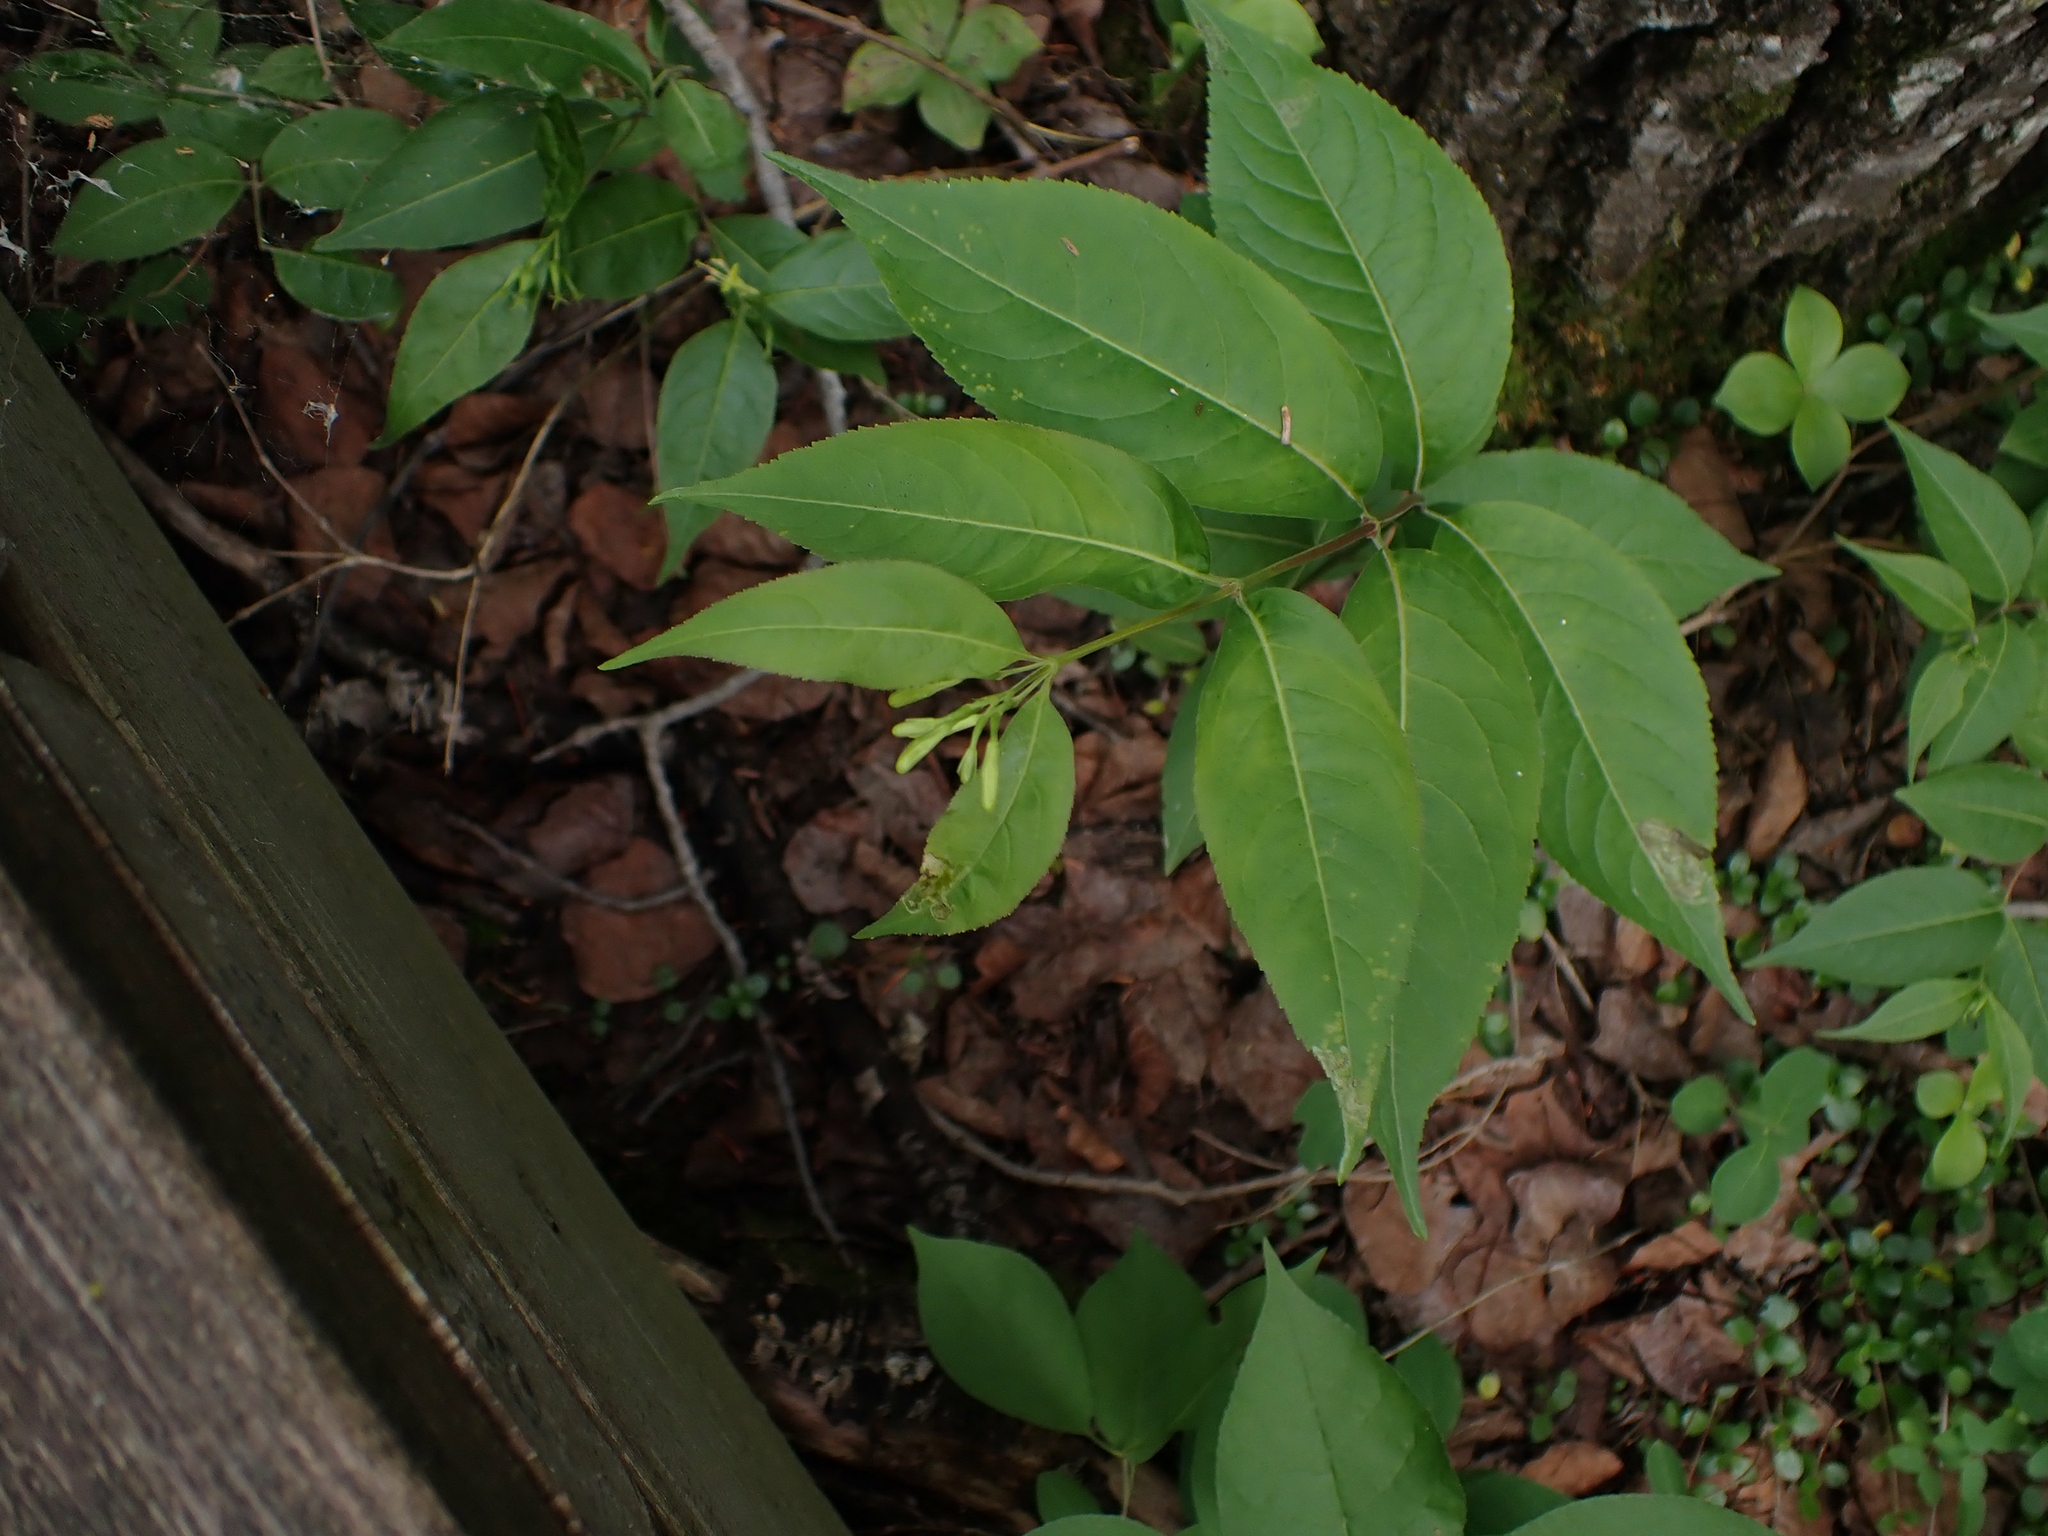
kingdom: Plantae
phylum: Tracheophyta
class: Magnoliopsida
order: Dipsacales
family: Caprifoliaceae
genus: Diervilla
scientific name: Diervilla lonicera
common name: Bush-honeysuckle
